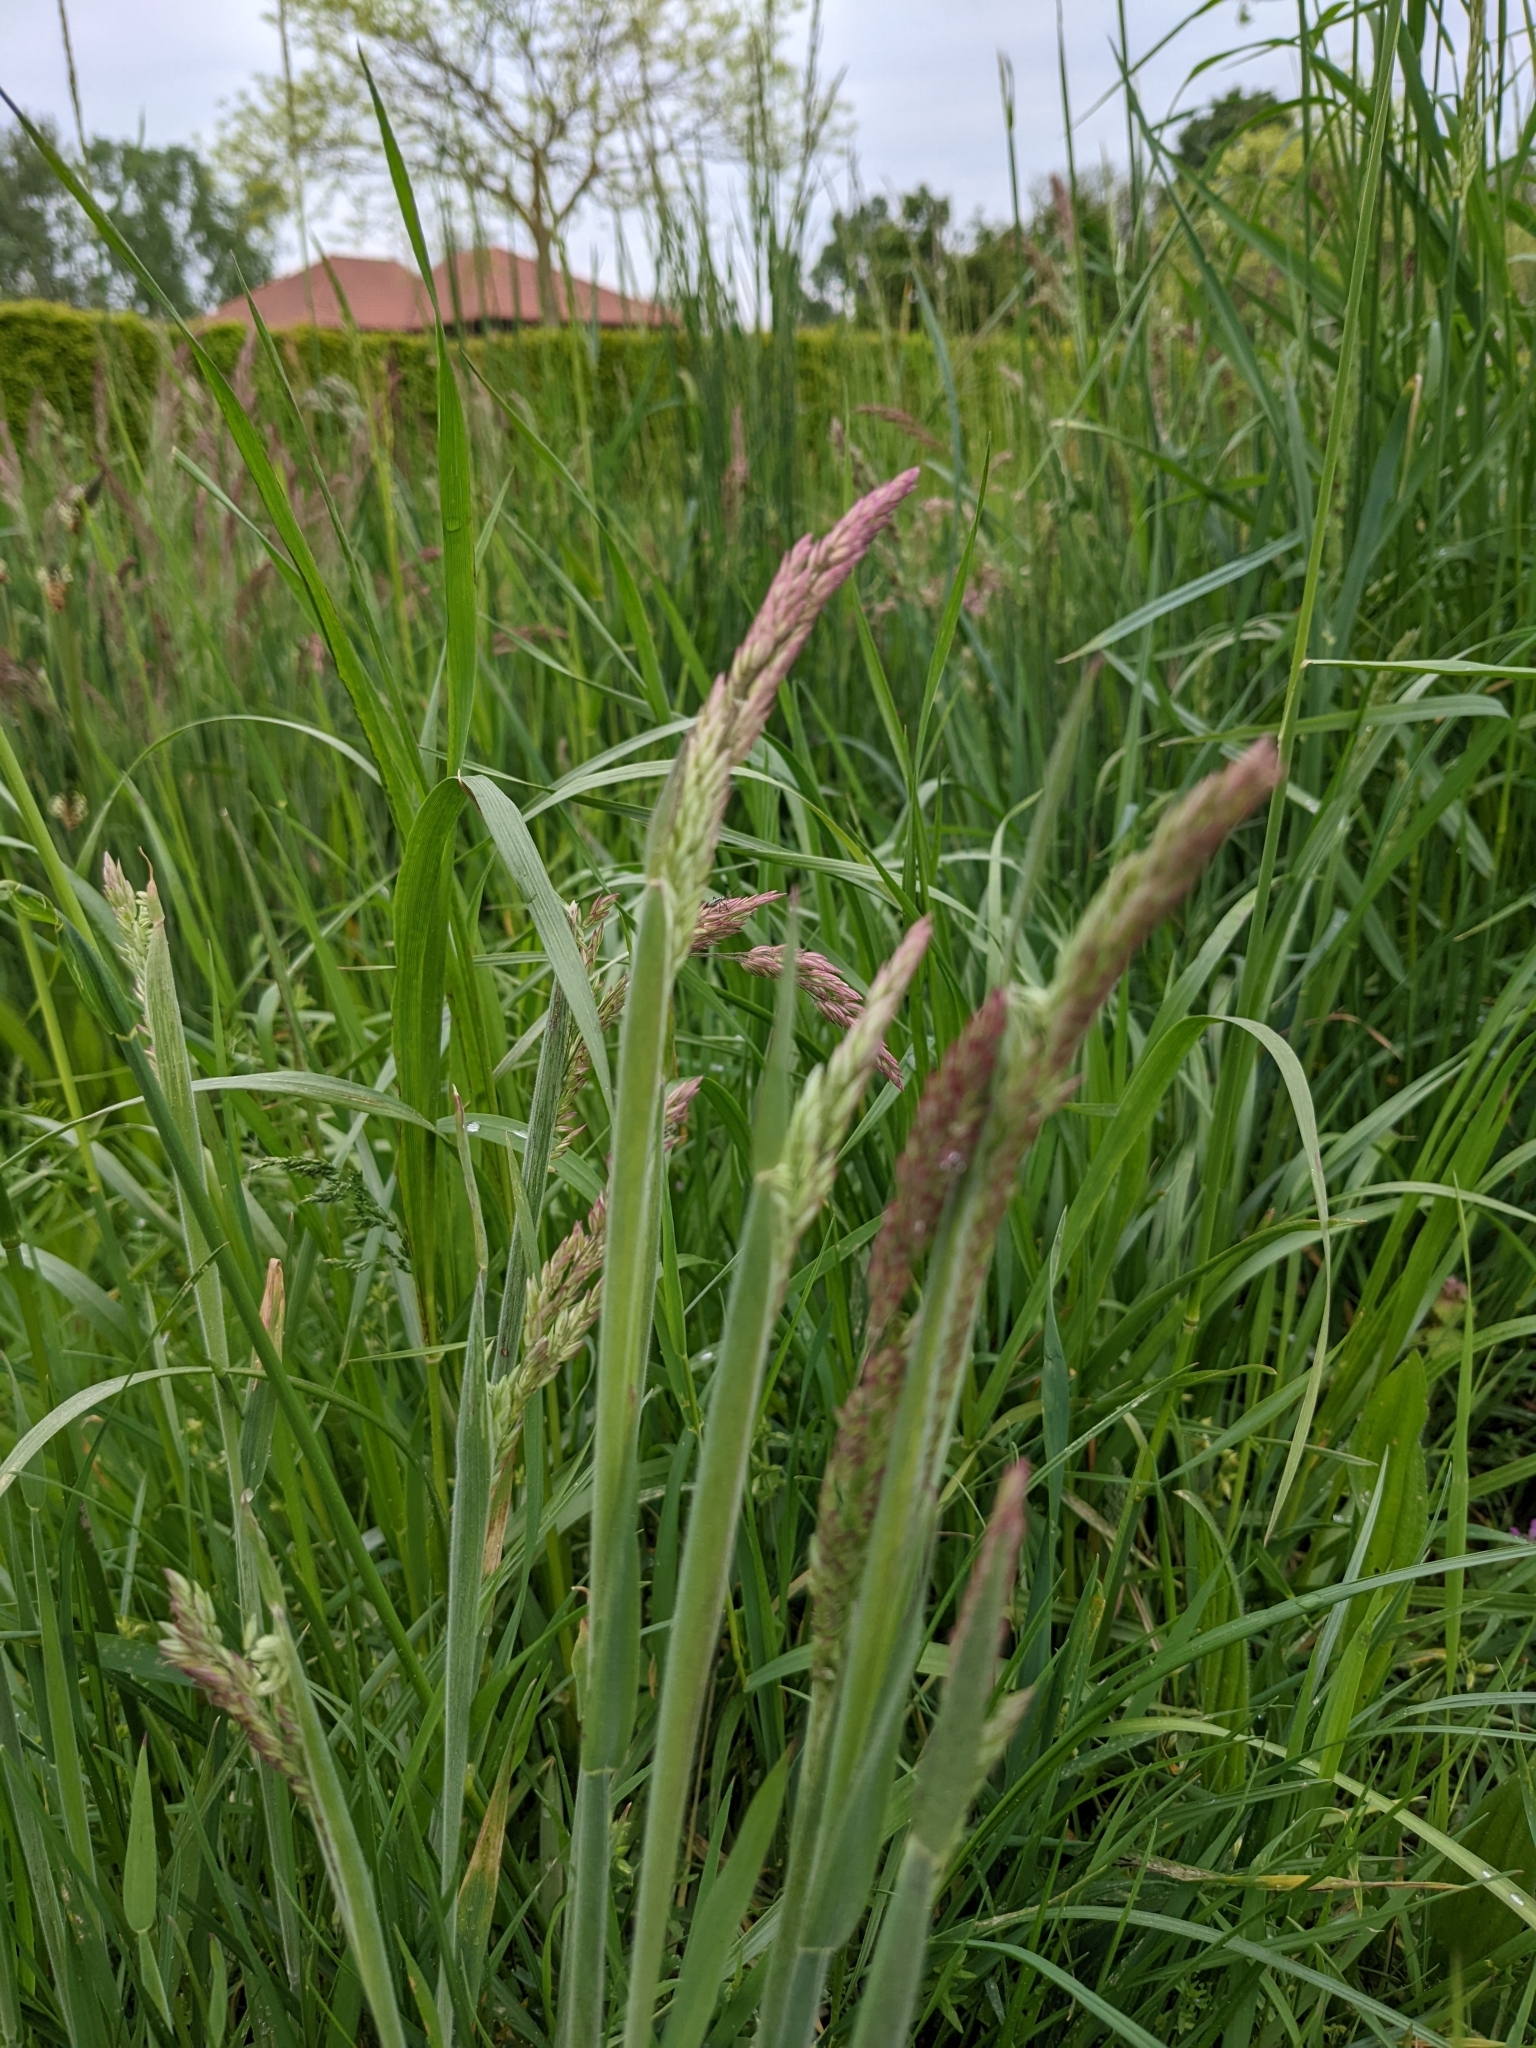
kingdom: Plantae
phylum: Tracheophyta
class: Liliopsida
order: Poales
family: Poaceae
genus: Holcus
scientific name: Holcus lanatus
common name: Yorkshire-fog
